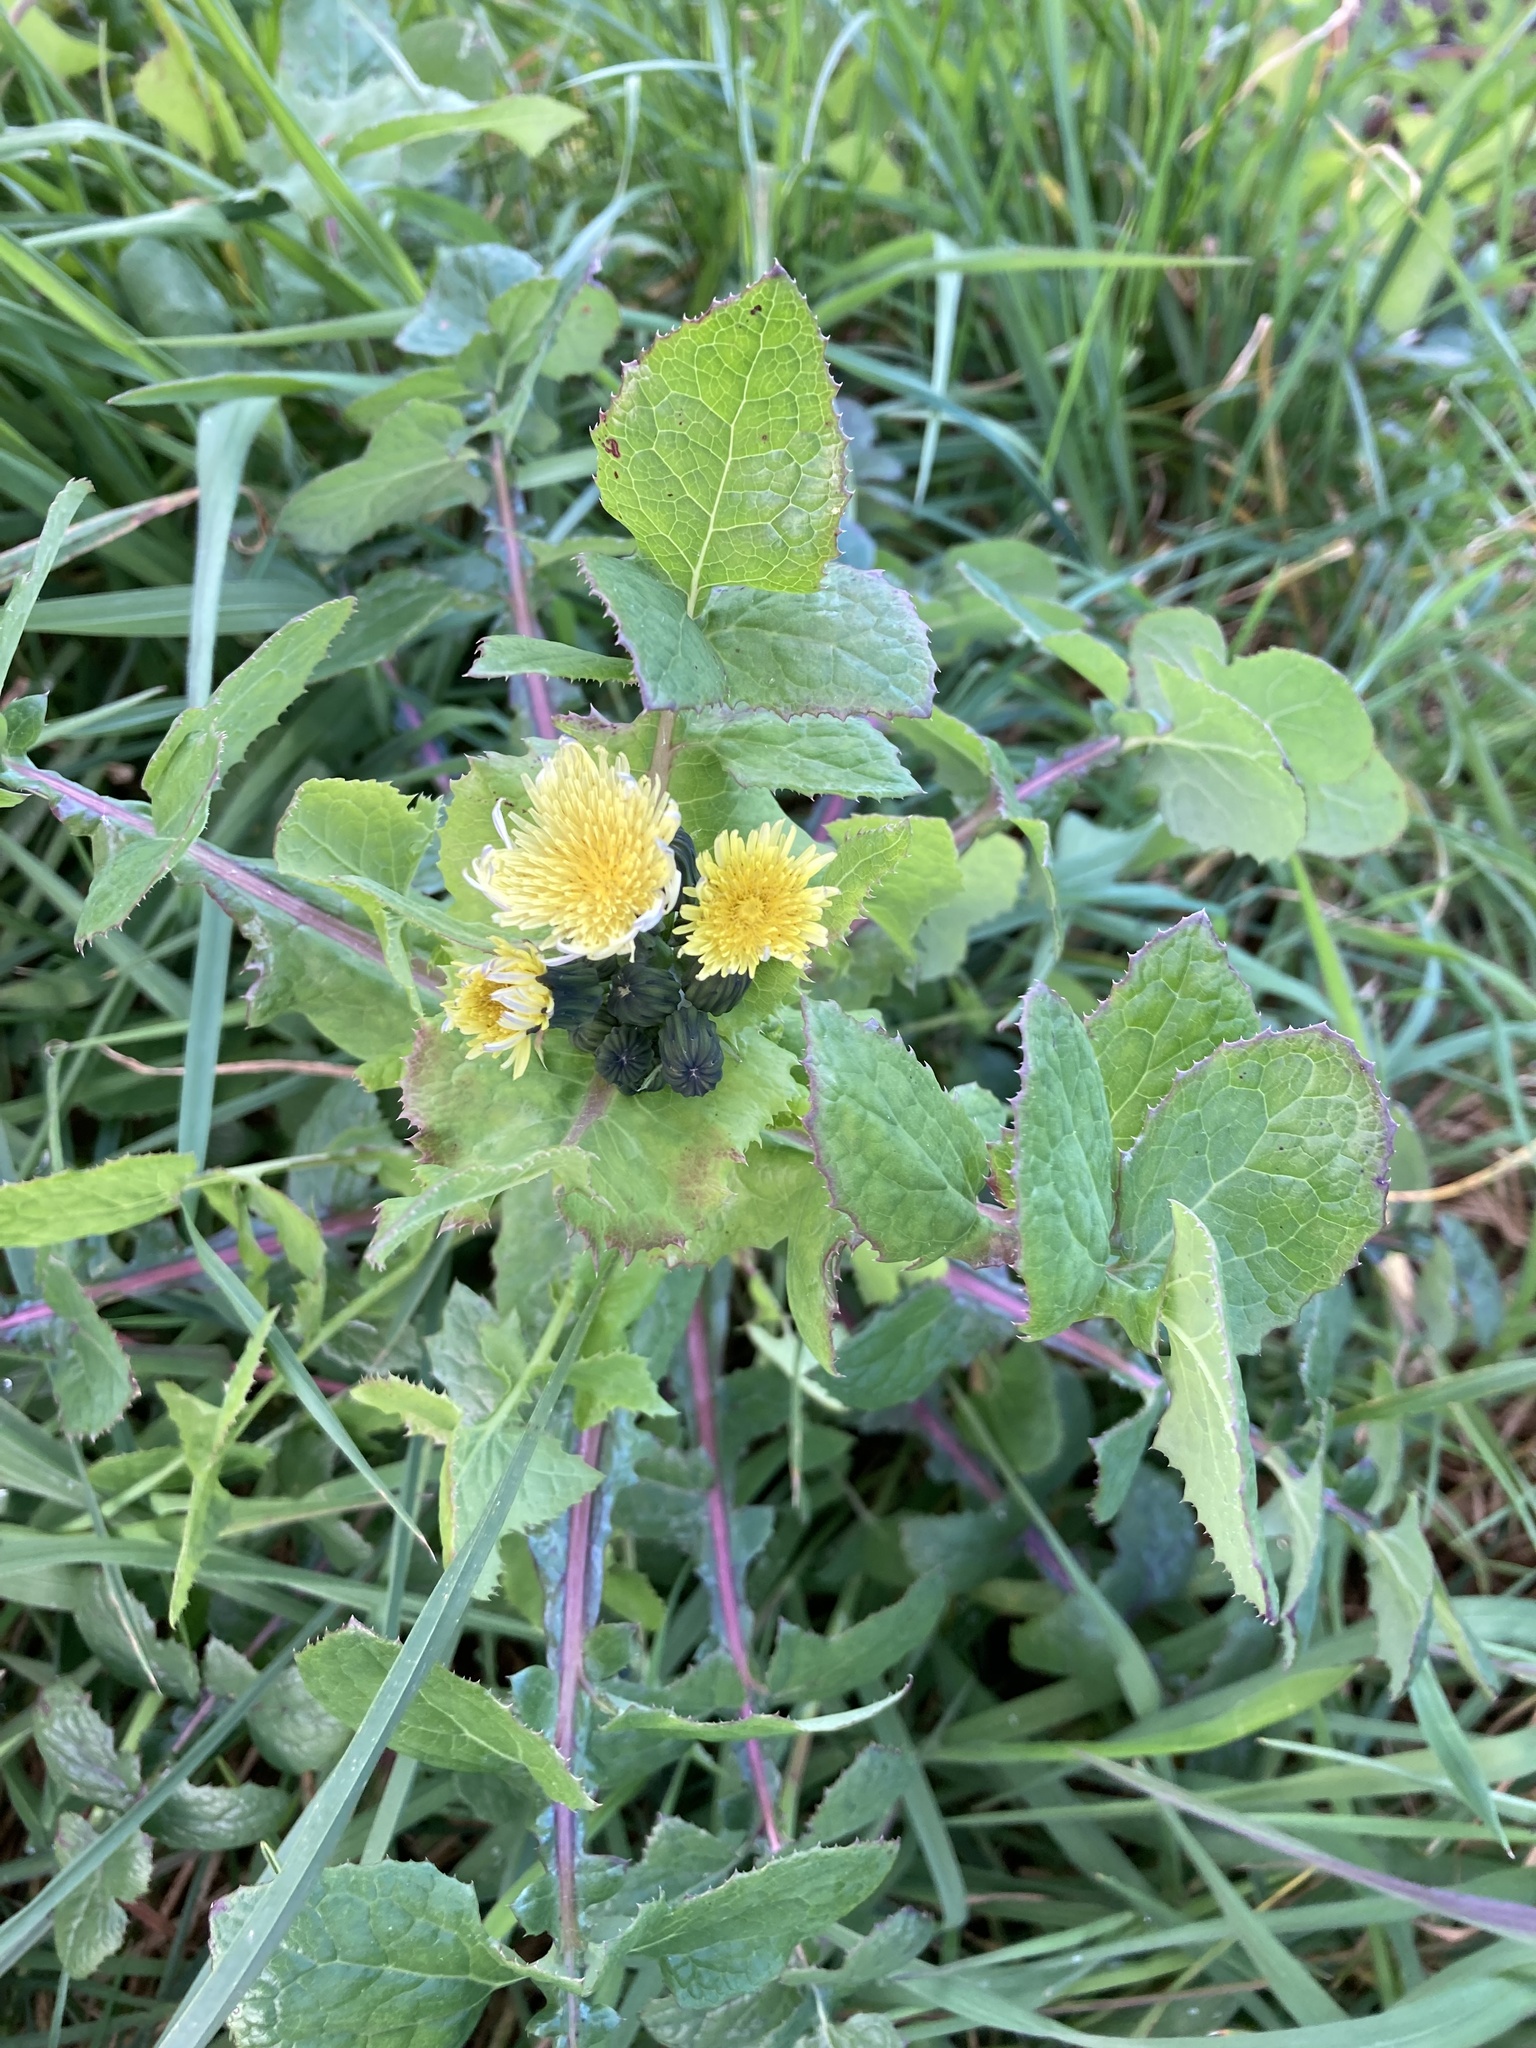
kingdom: Plantae
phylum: Tracheophyta
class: Magnoliopsida
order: Asterales
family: Asteraceae
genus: Sonchus
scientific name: Sonchus oleraceus
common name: Common sowthistle
